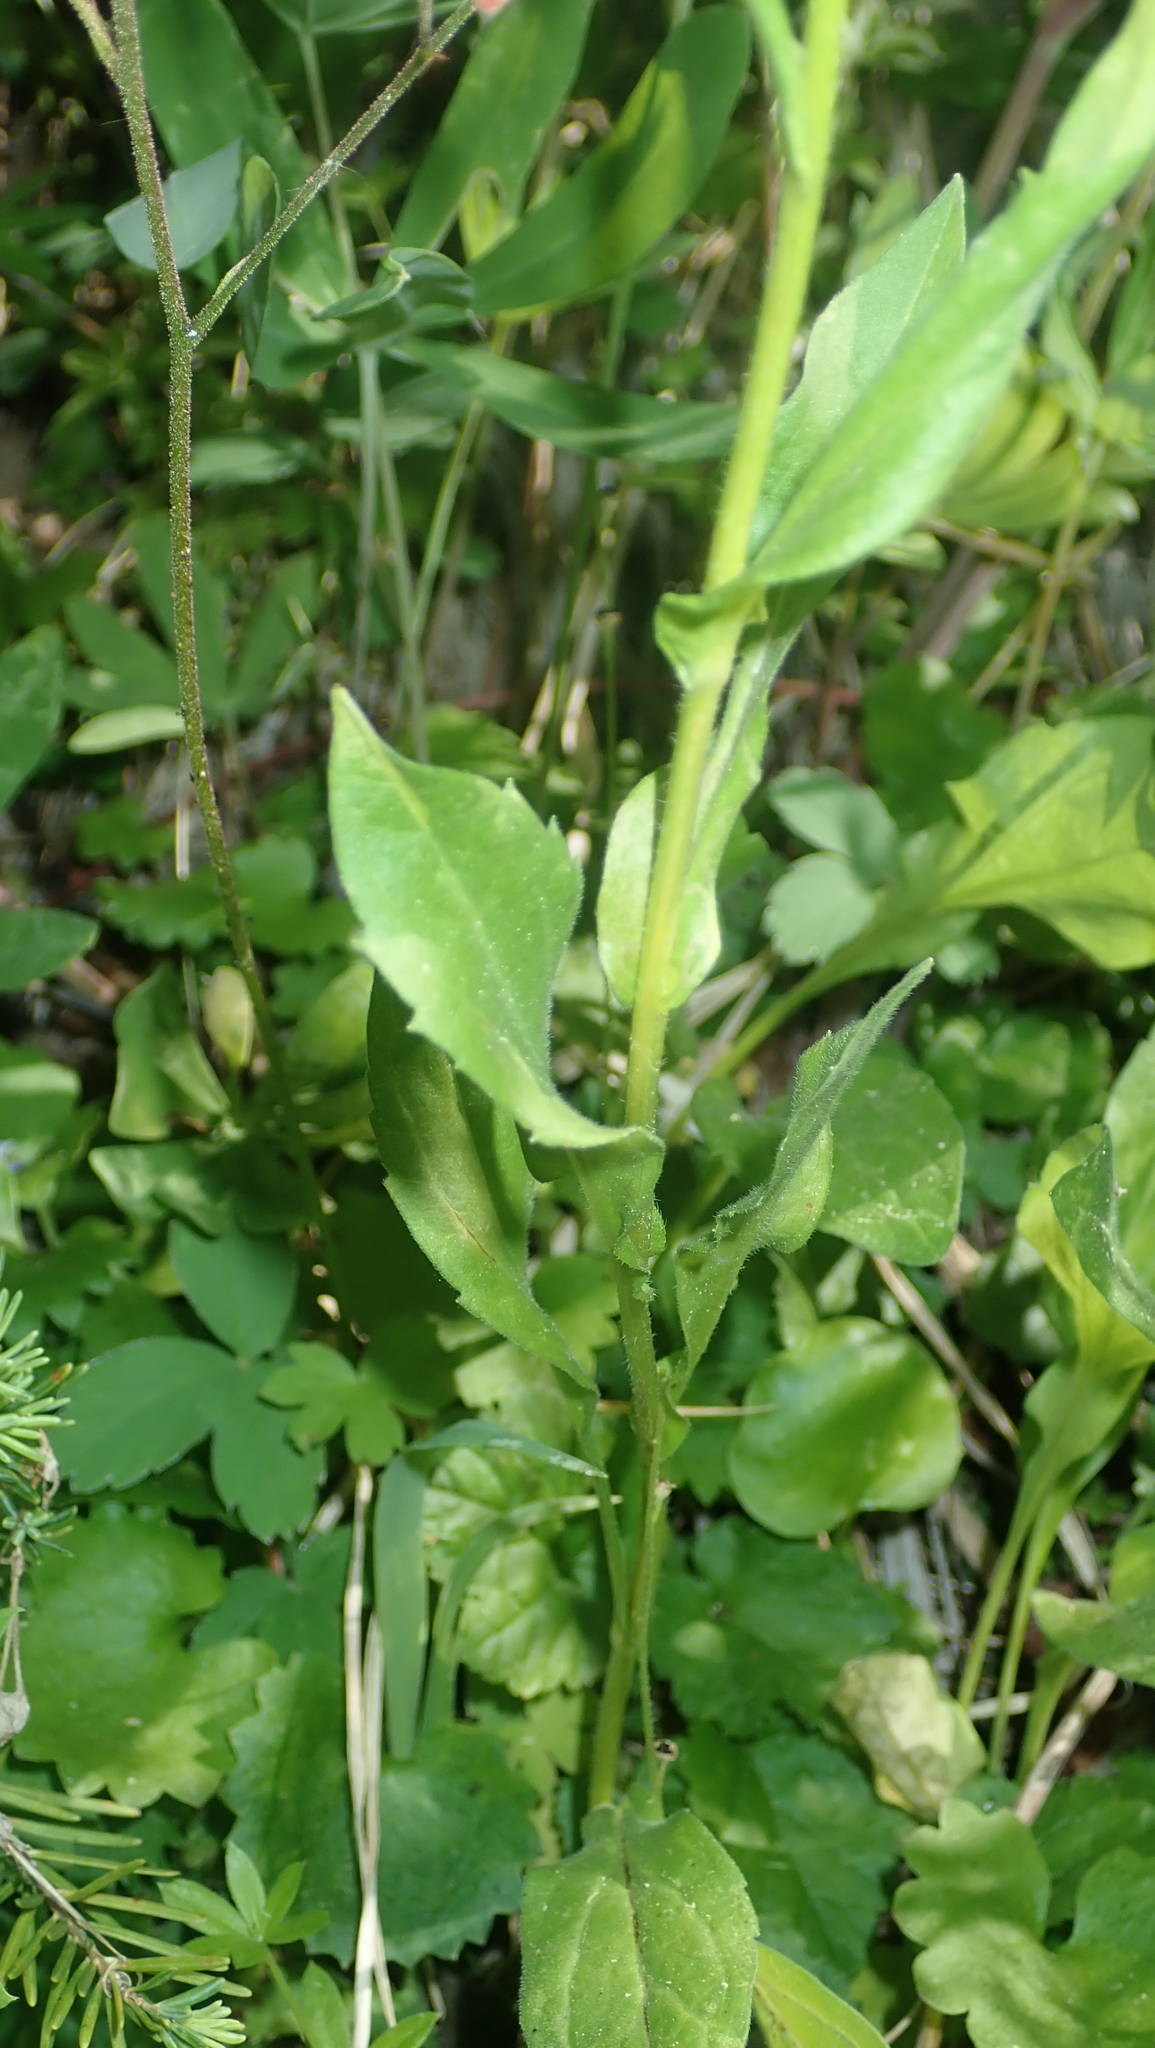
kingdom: Plantae
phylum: Tracheophyta
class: Magnoliopsida
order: Asterales
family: Asteraceae
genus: Erigeron
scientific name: Erigeron coulteri
